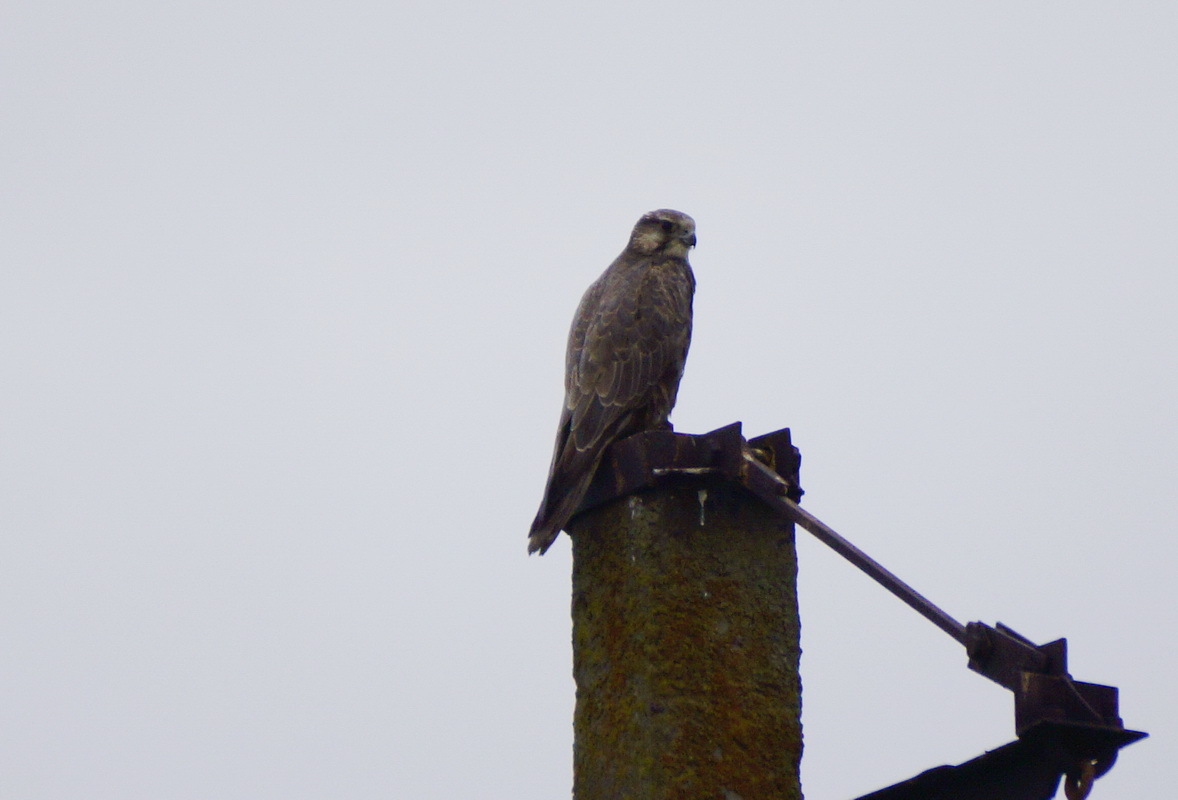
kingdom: Animalia
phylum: Chordata
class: Aves
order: Falconiformes
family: Falconidae
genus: Falco
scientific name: Falco cherrug
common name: Saker falcon
